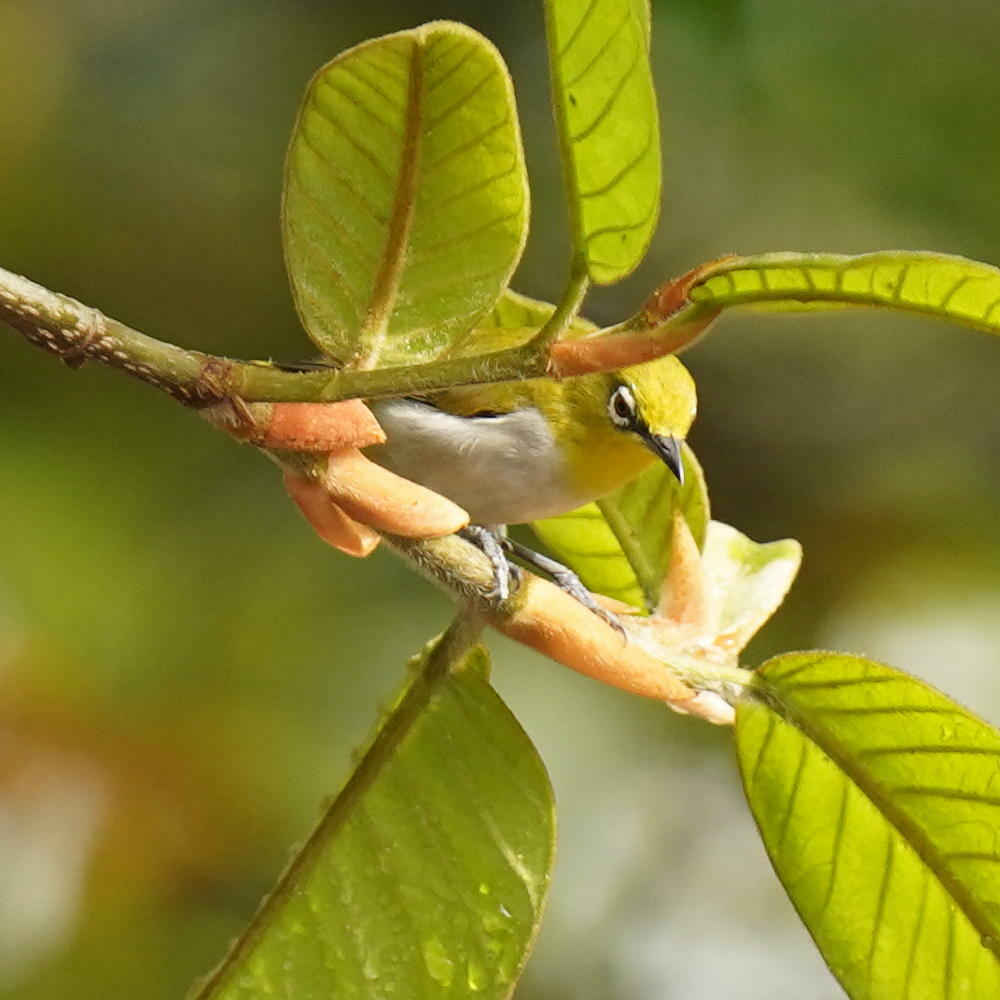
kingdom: Animalia
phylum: Chordata
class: Aves
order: Passeriformes
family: Zosteropidae
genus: Zosterops
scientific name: Zosterops palpebrosus
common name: Oriental white-eye
